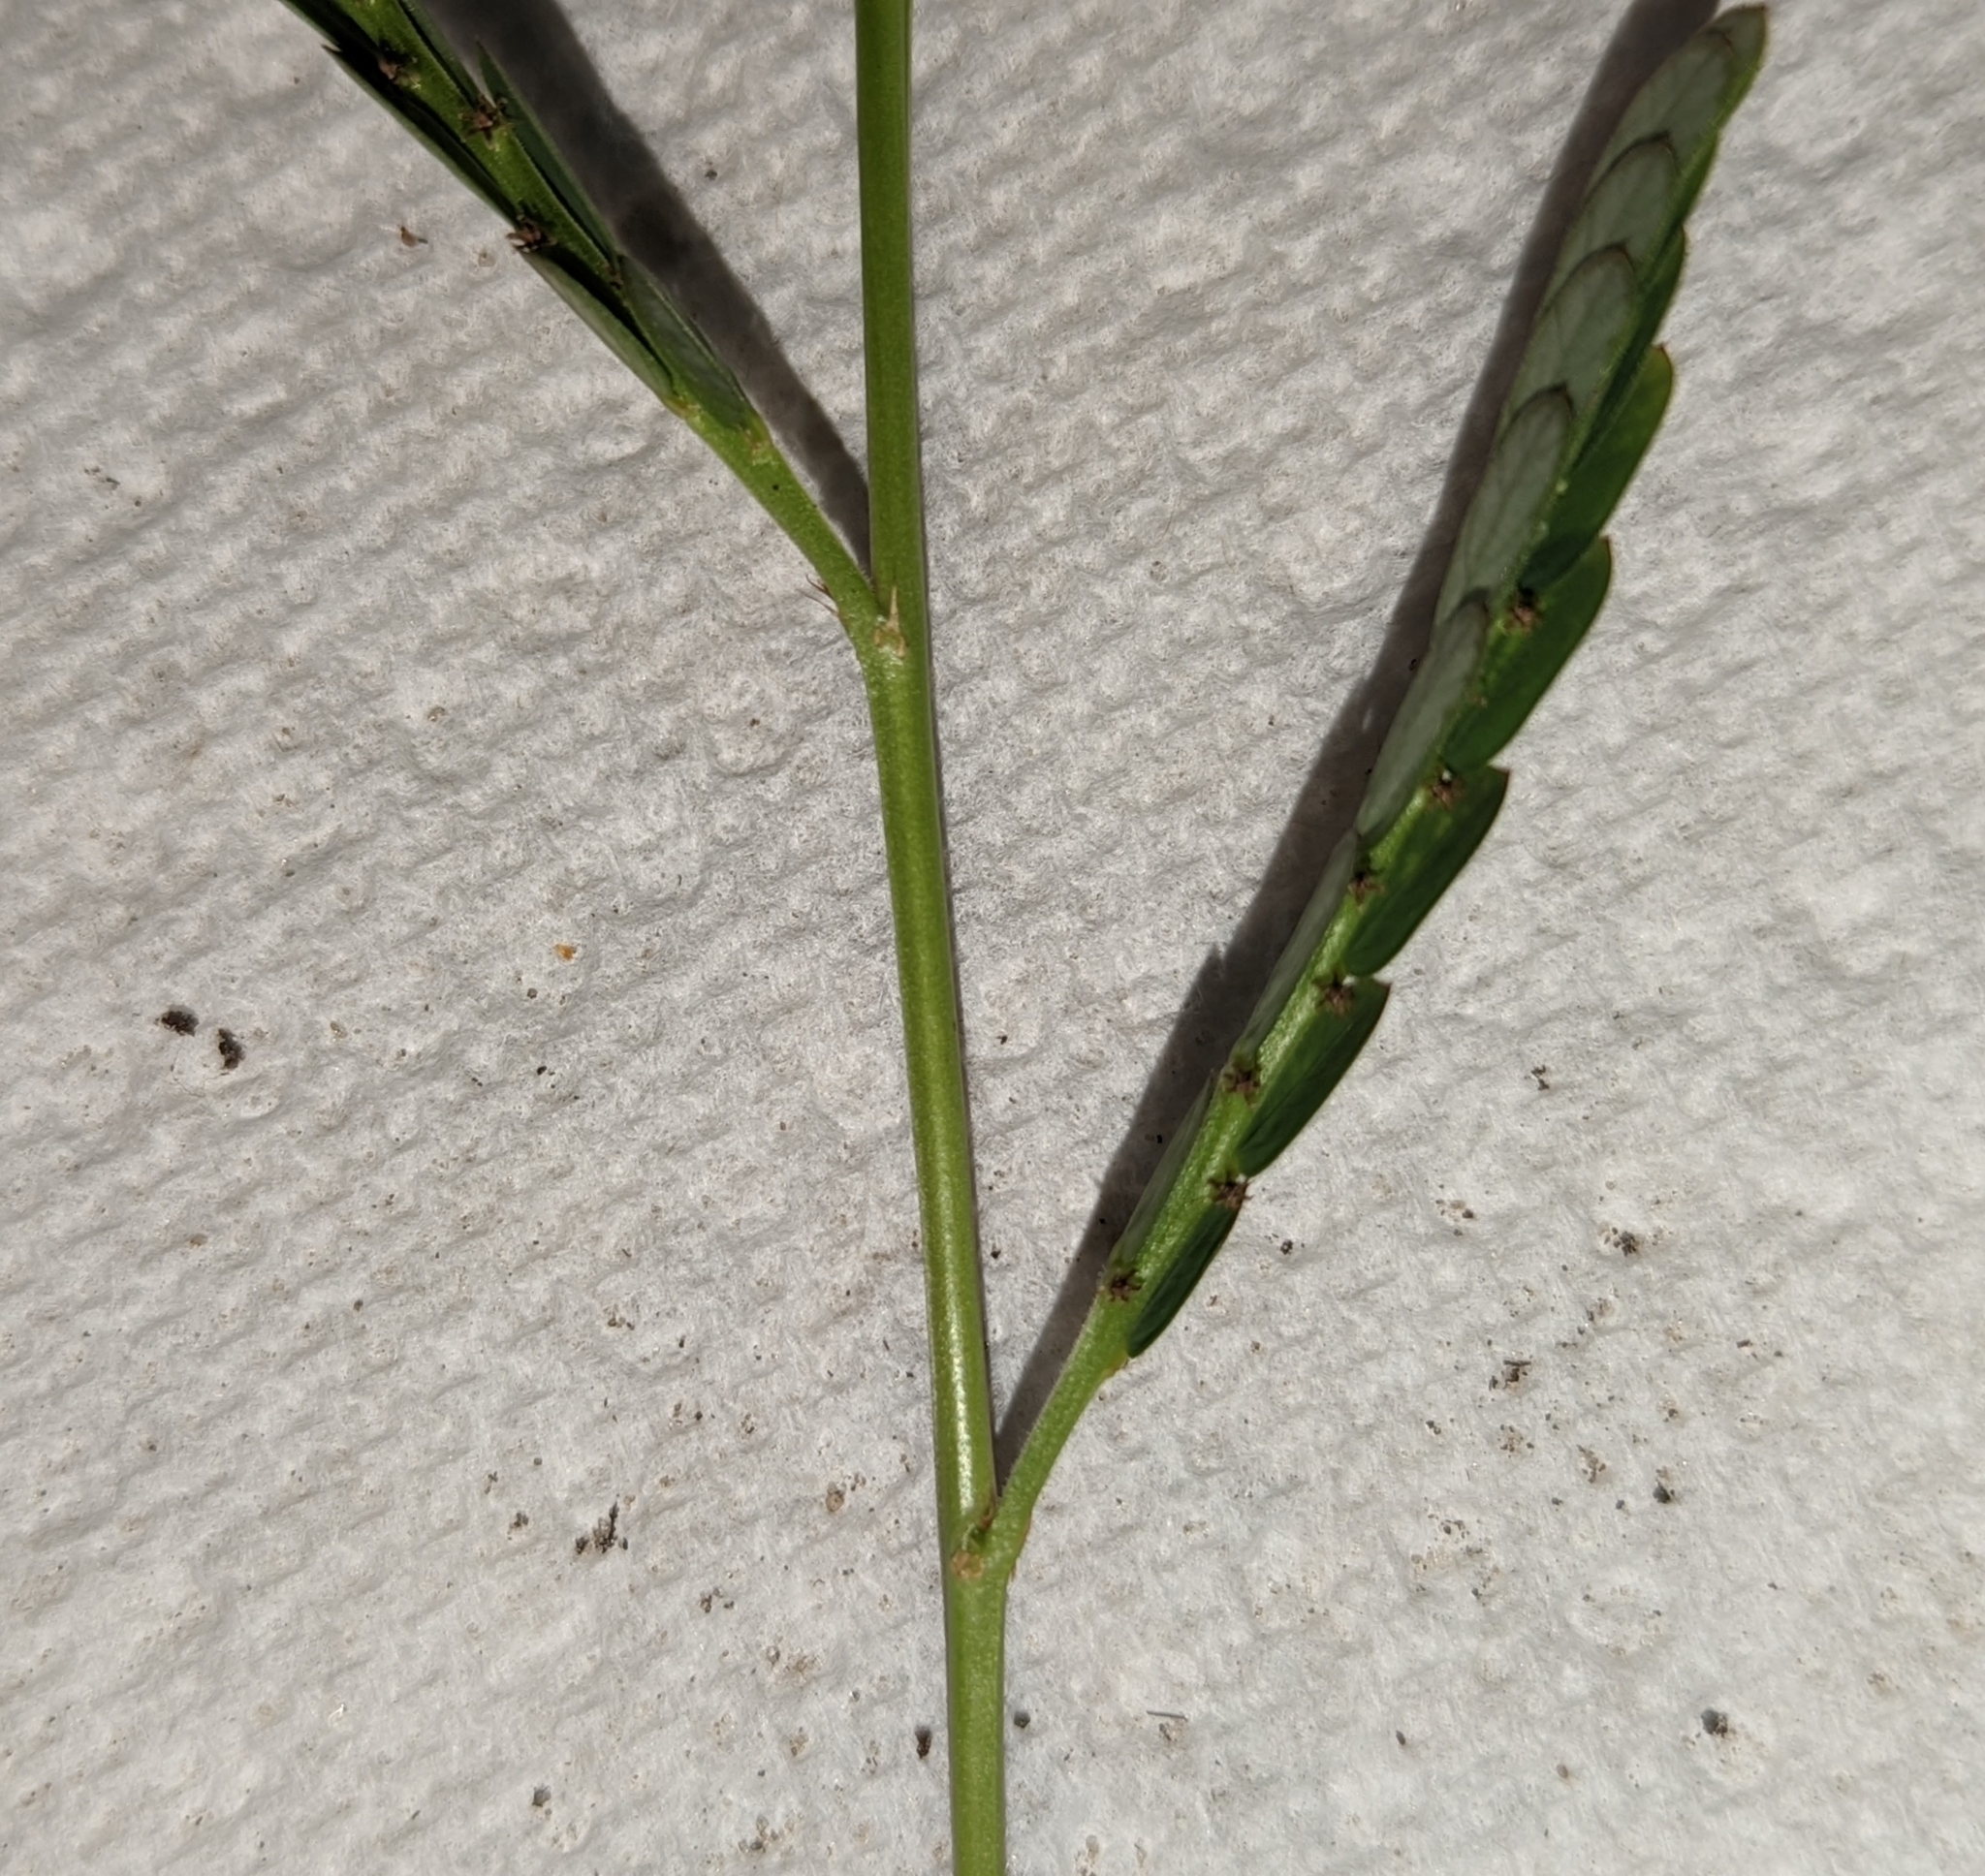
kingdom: Plantae
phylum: Tracheophyta
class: Magnoliopsida
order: Malpighiales
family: Phyllanthaceae
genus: Phyllanthus
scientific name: Phyllanthus urinaria
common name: Chamber bitter
